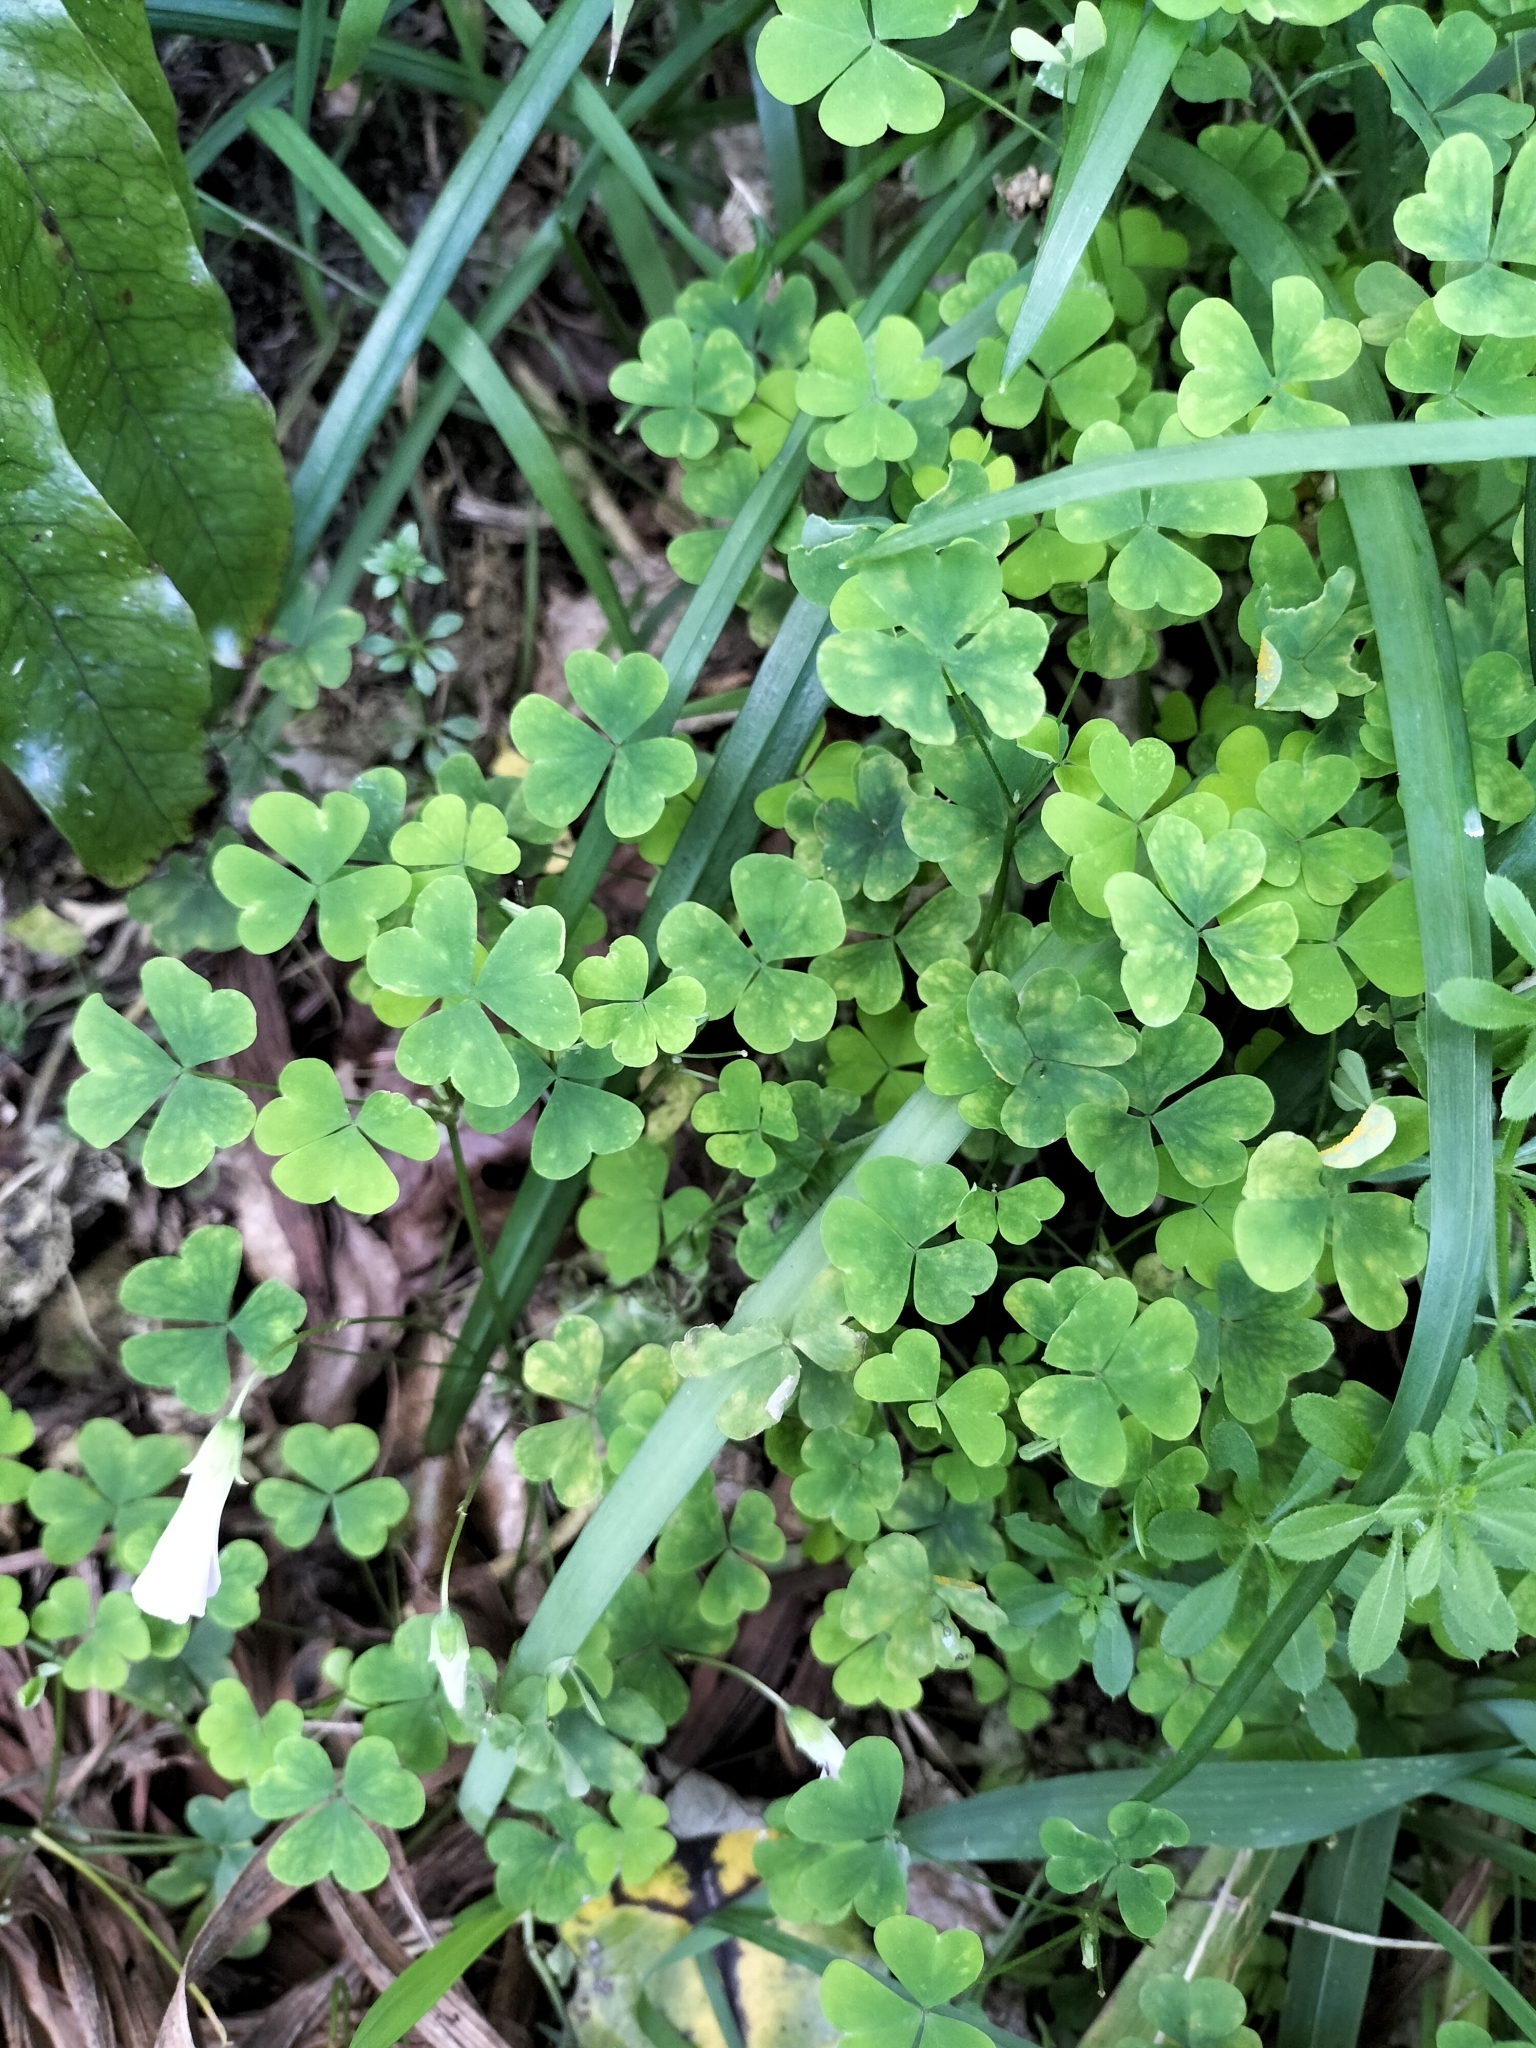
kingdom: Plantae
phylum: Tracheophyta
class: Magnoliopsida
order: Oxalidales
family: Oxalidaceae
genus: Oxalis
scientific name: Oxalis incarnata
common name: Pale pink-sorrel
